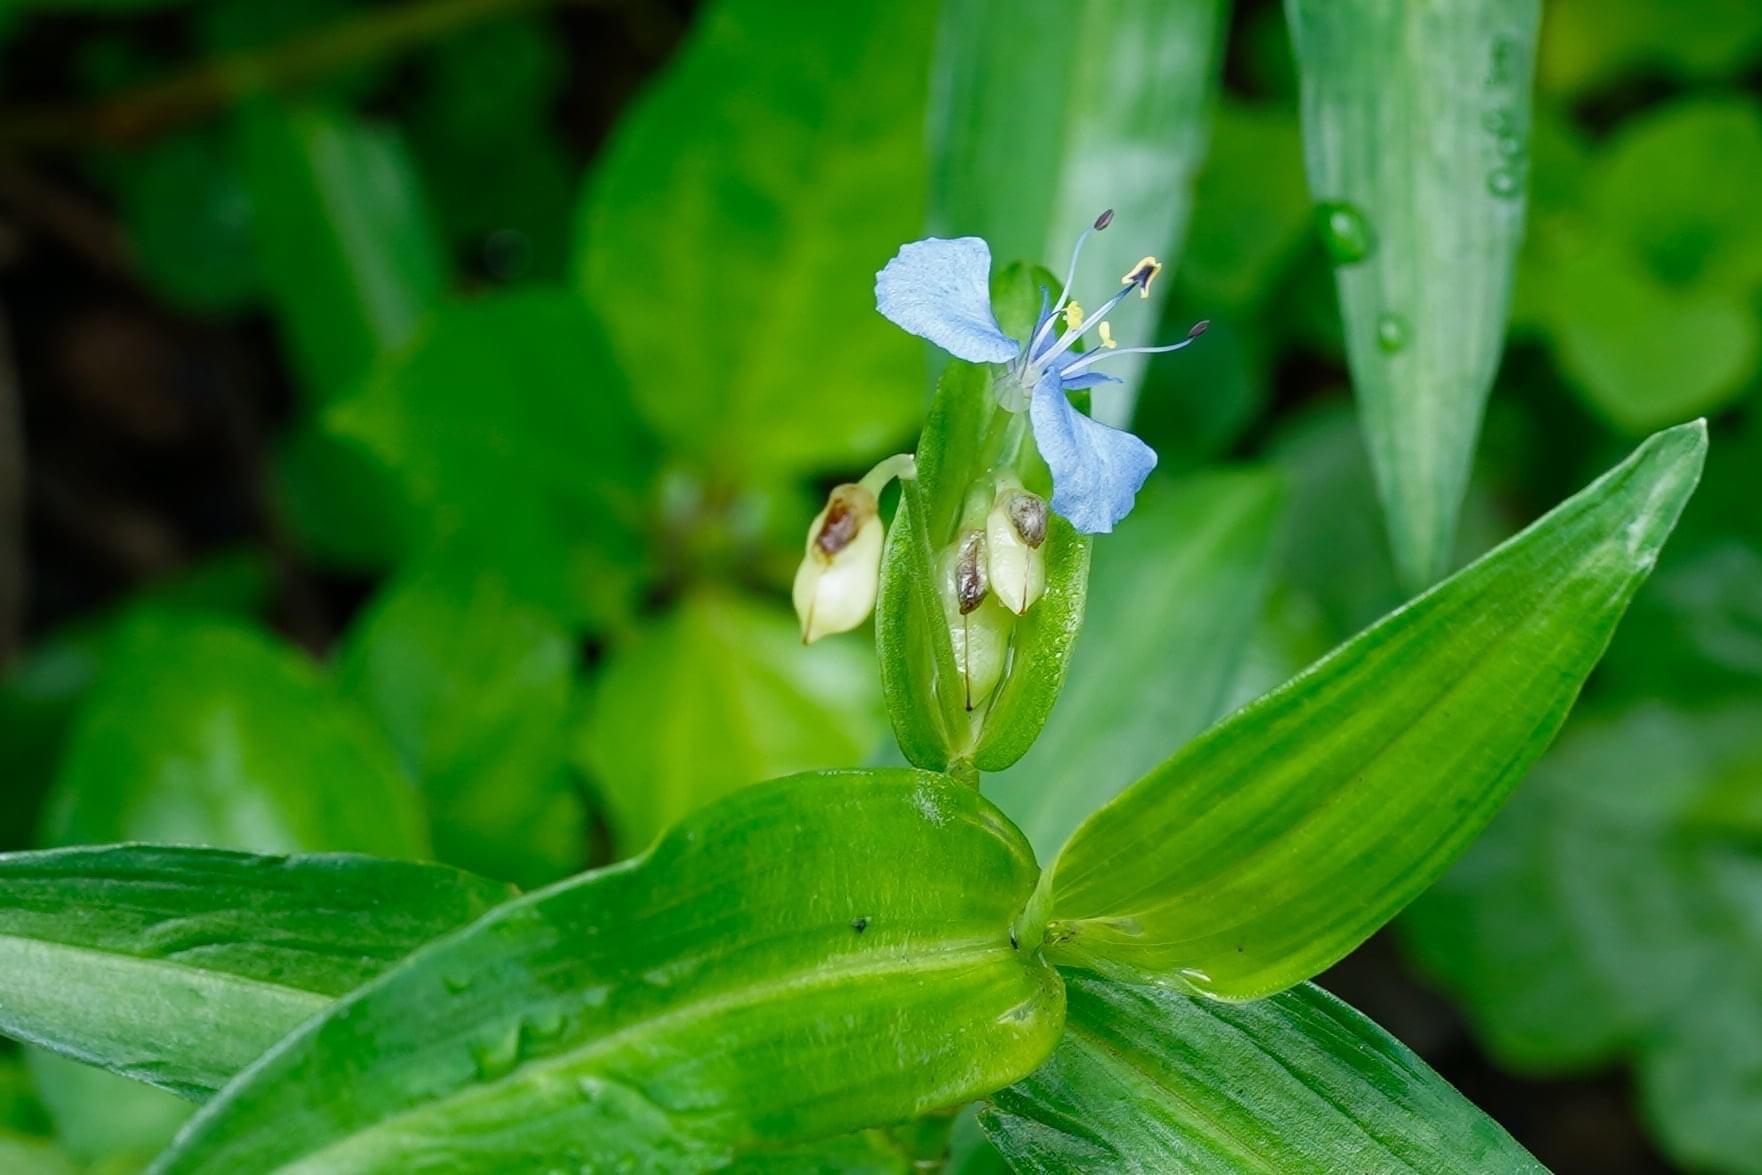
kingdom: Plantae
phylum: Tracheophyta
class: Liliopsida
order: Commelinales
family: Commelinaceae
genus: Commelina
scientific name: Commelina diffusa
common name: Climbing dayflower
